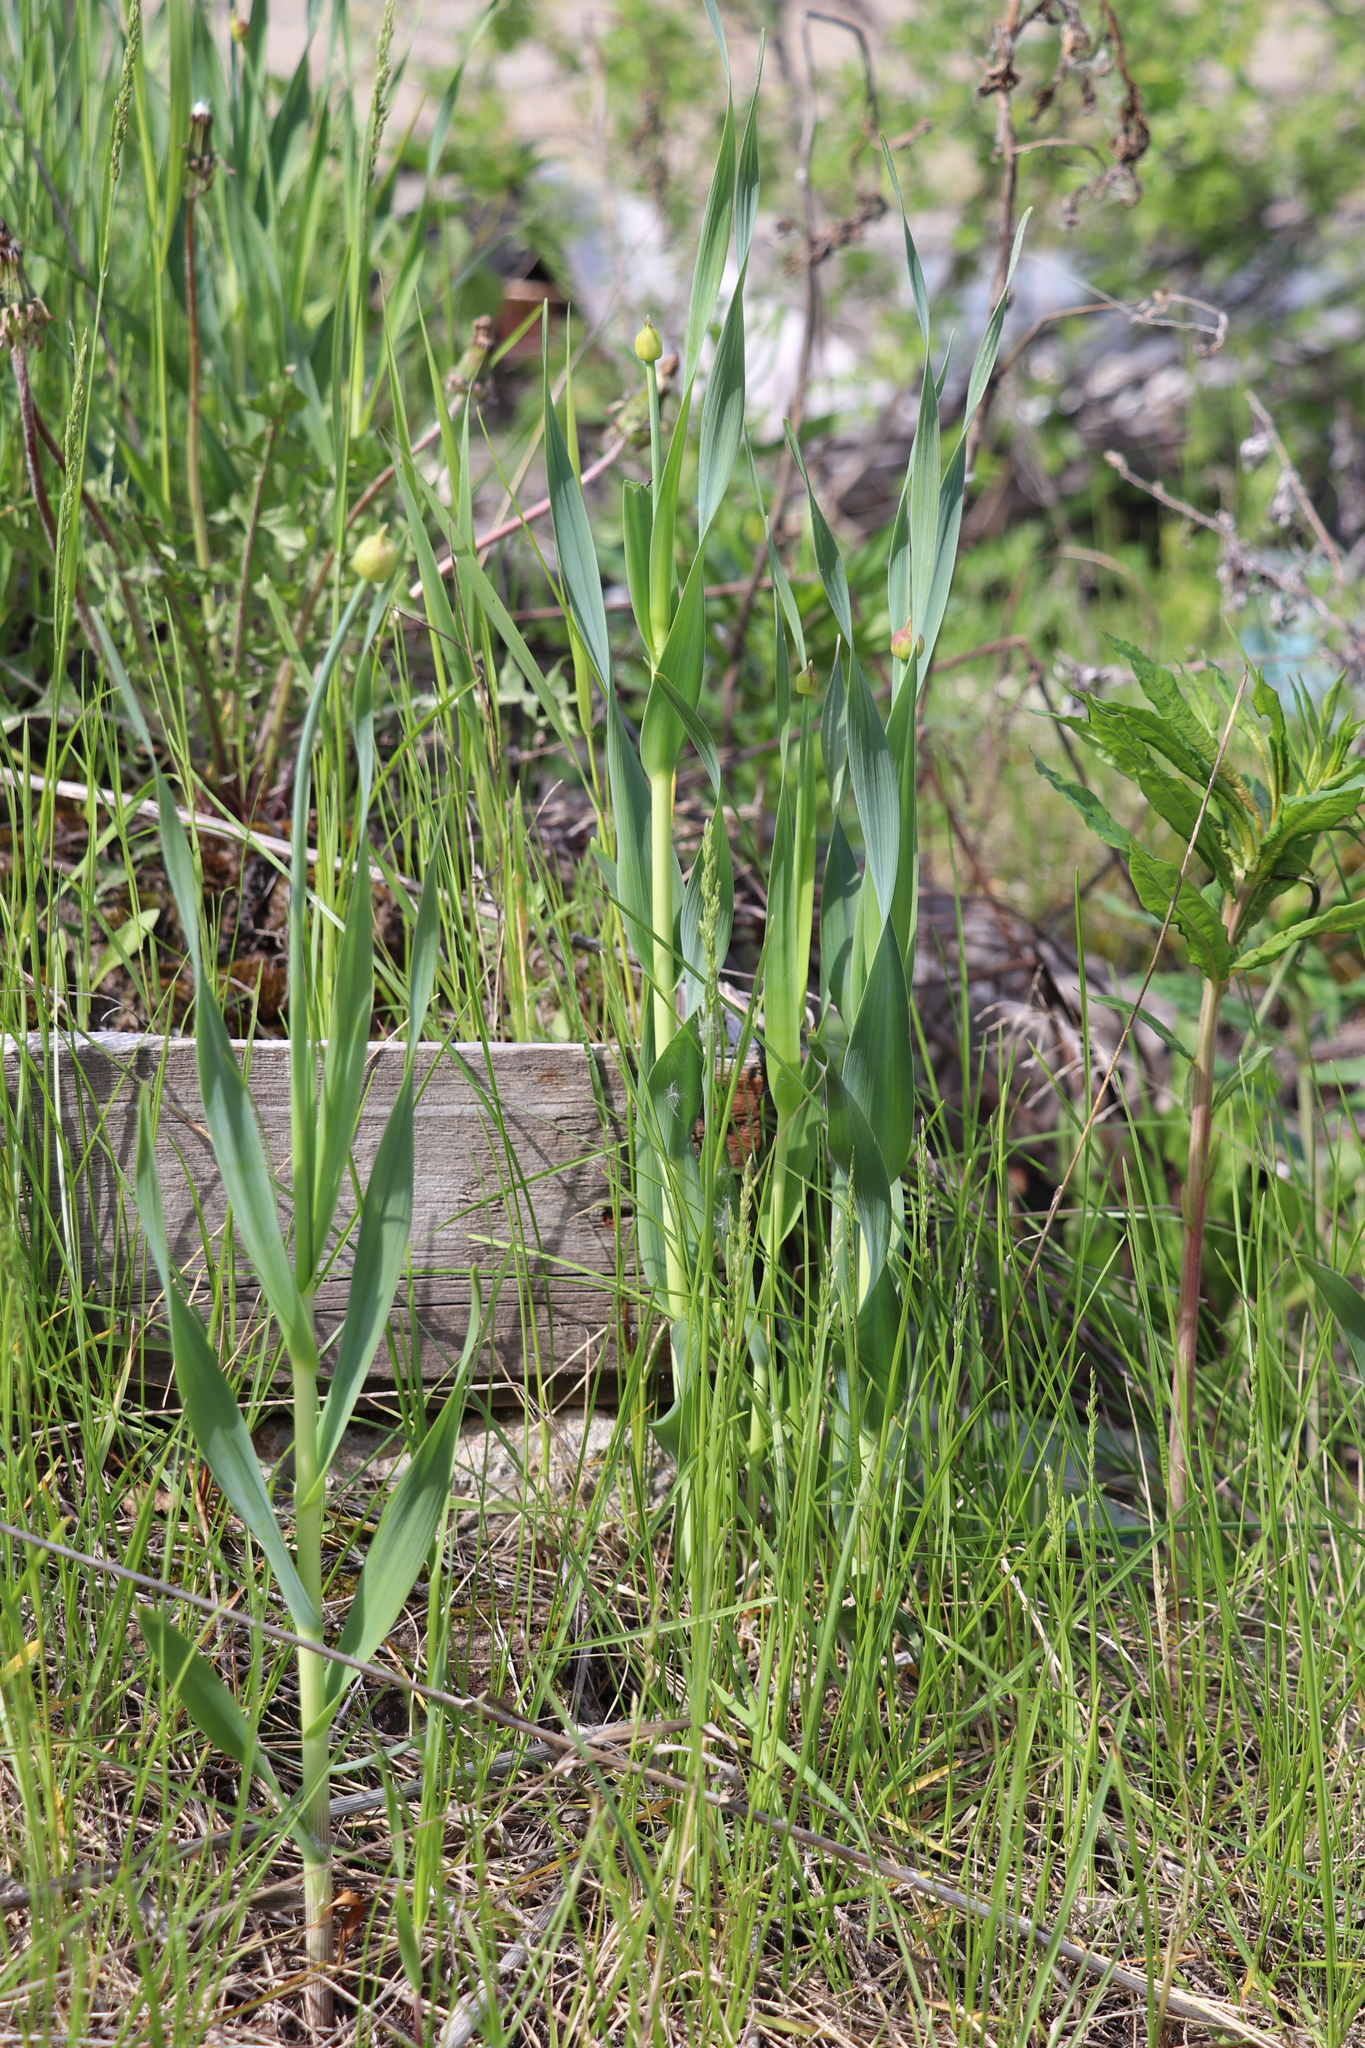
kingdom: Plantae
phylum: Tracheophyta
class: Liliopsida
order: Asparagales
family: Amaryllidaceae
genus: Allium
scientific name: Allium obliquum
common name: Oblique onion
